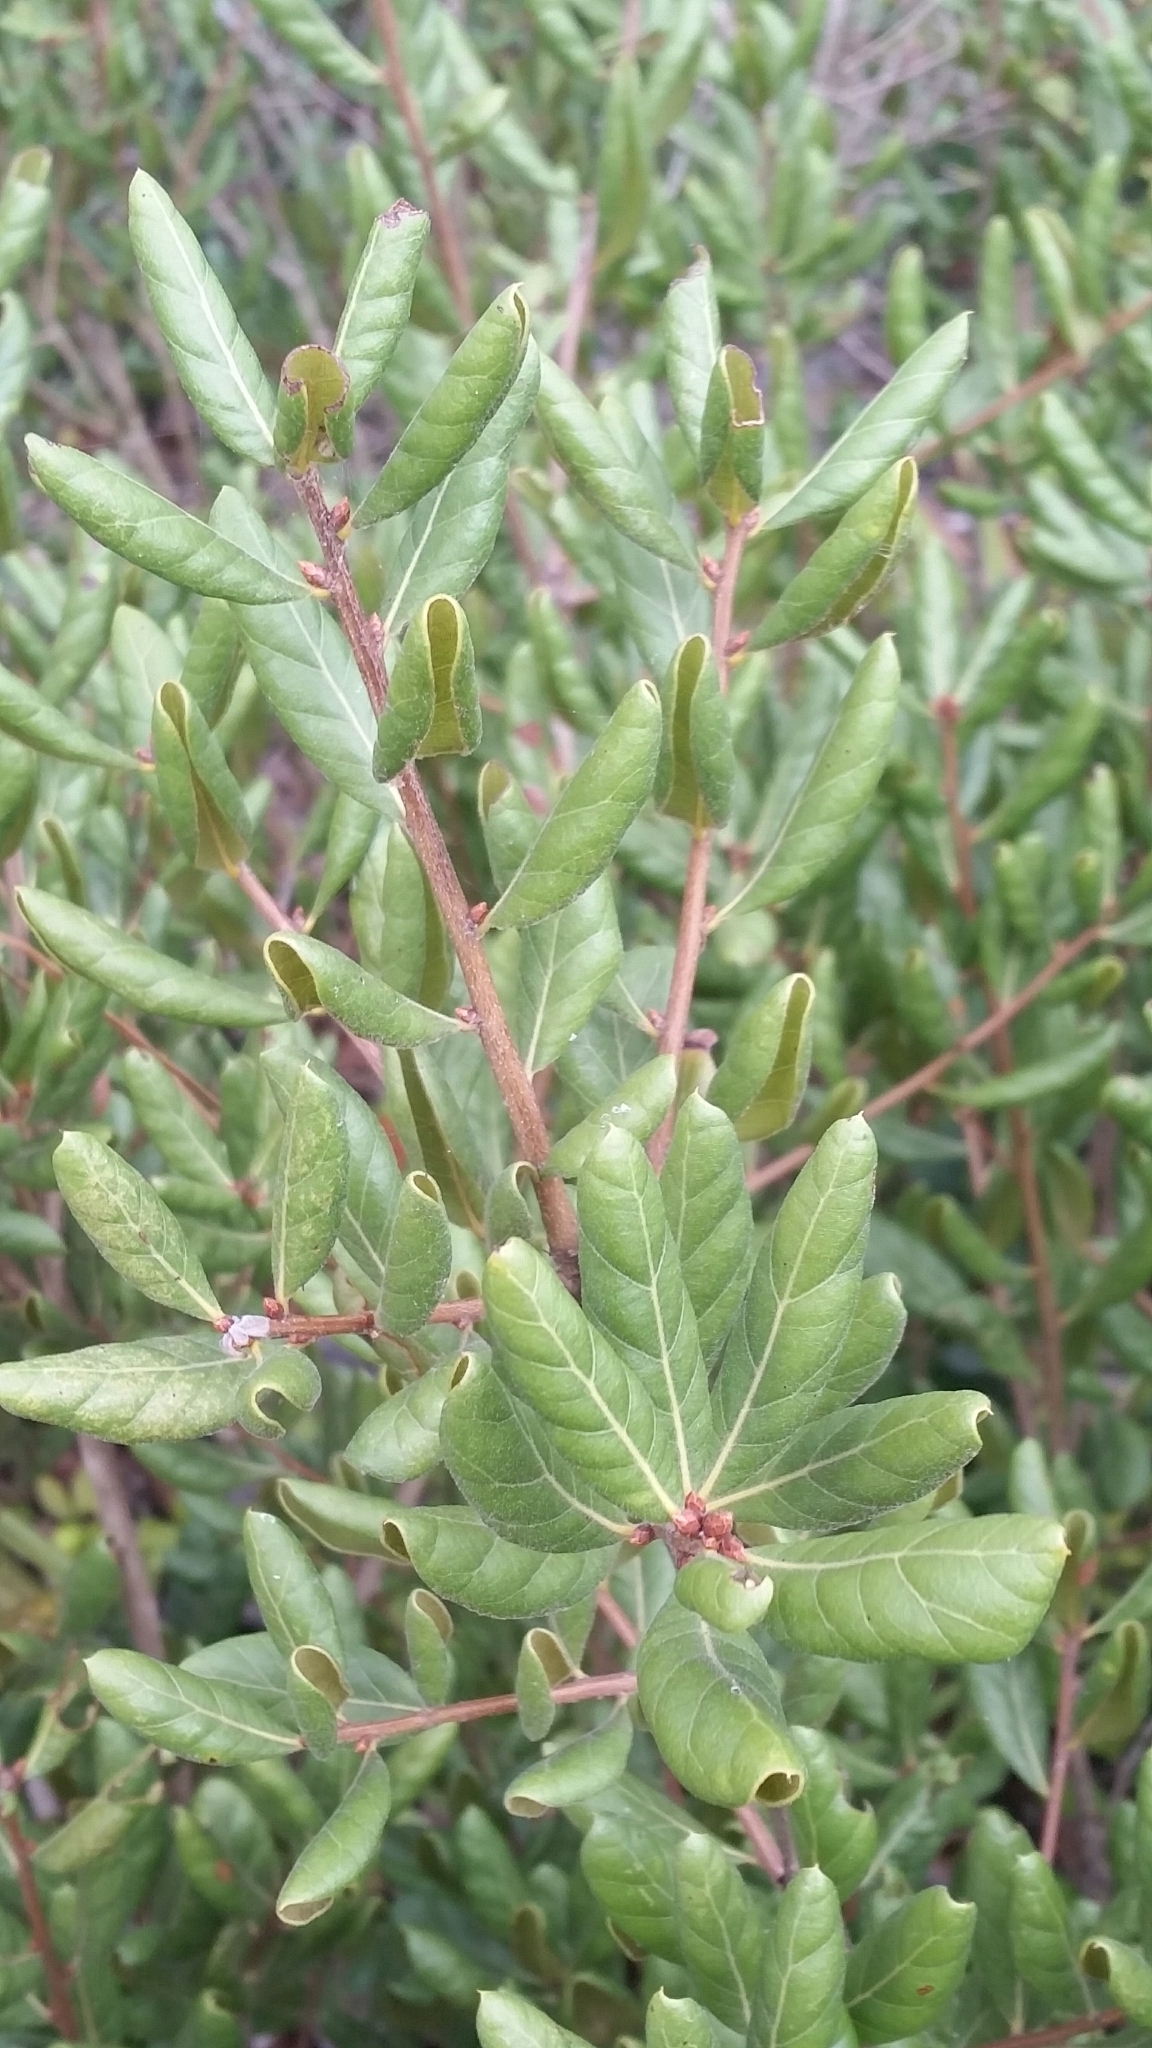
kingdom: Plantae
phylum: Tracheophyta
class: Magnoliopsida
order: Fagales
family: Fagaceae
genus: Quercus
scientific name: Quercus inopina
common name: Sandhill oak
